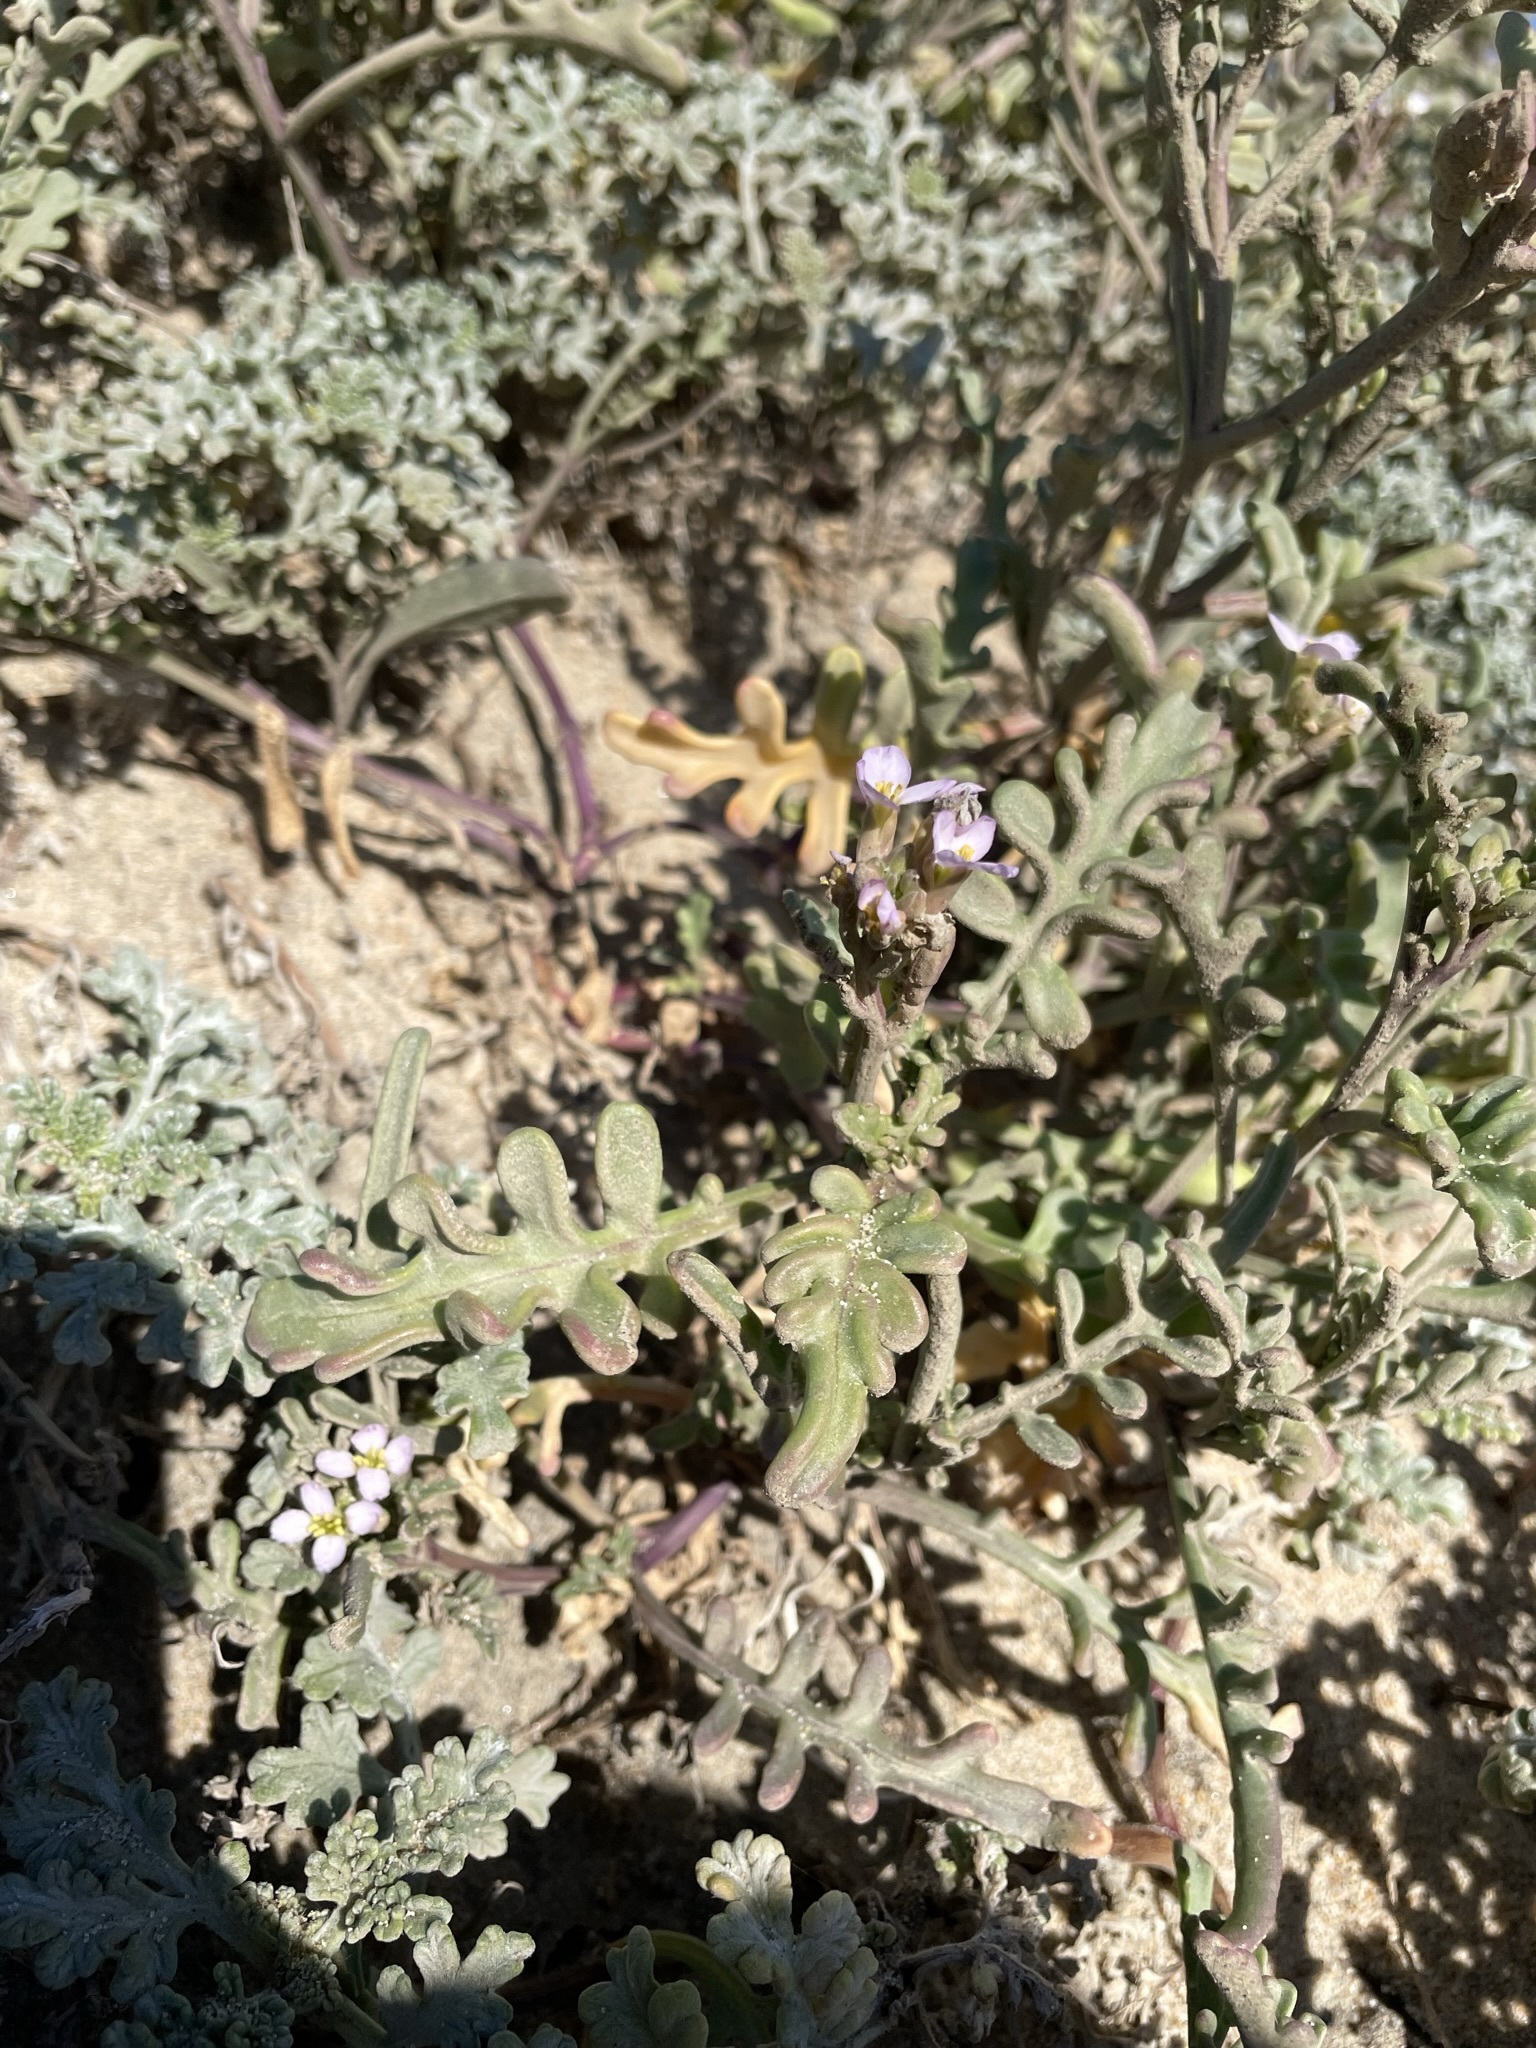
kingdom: Plantae
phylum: Tracheophyta
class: Magnoliopsida
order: Brassicales
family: Brassicaceae
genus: Cakile
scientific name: Cakile maritima
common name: Sea rocket
